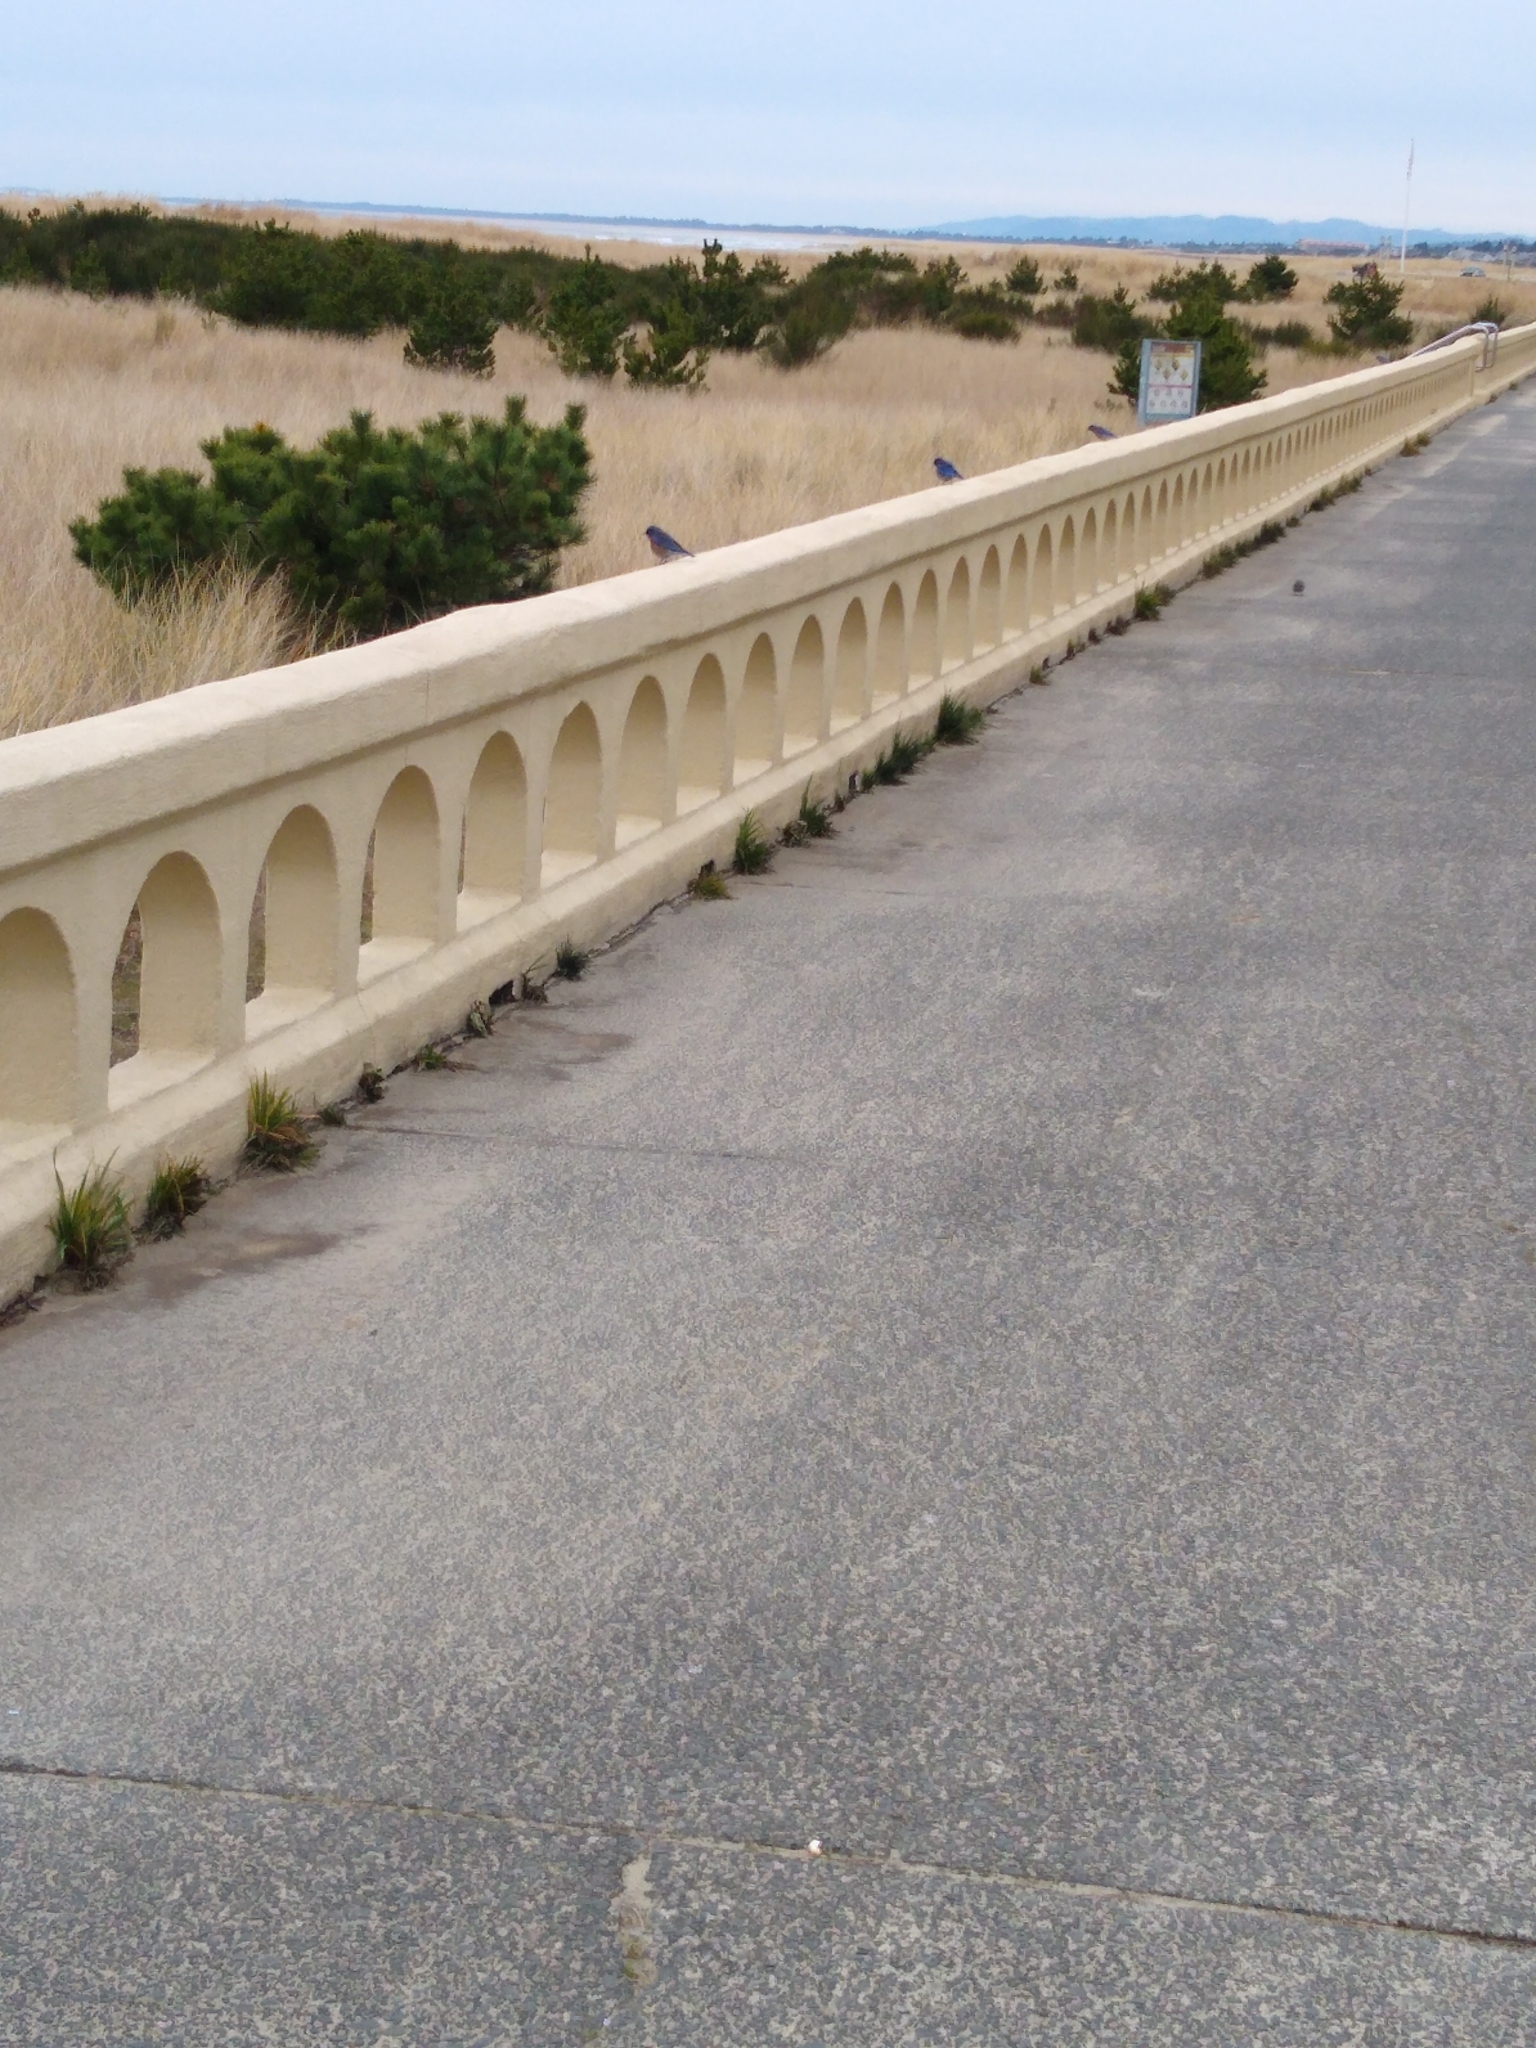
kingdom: Animalia
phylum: Chordata
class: Aves
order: Passeriformes
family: Turdidae
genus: Sialia
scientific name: Sialia mexicana
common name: Western bluebird
